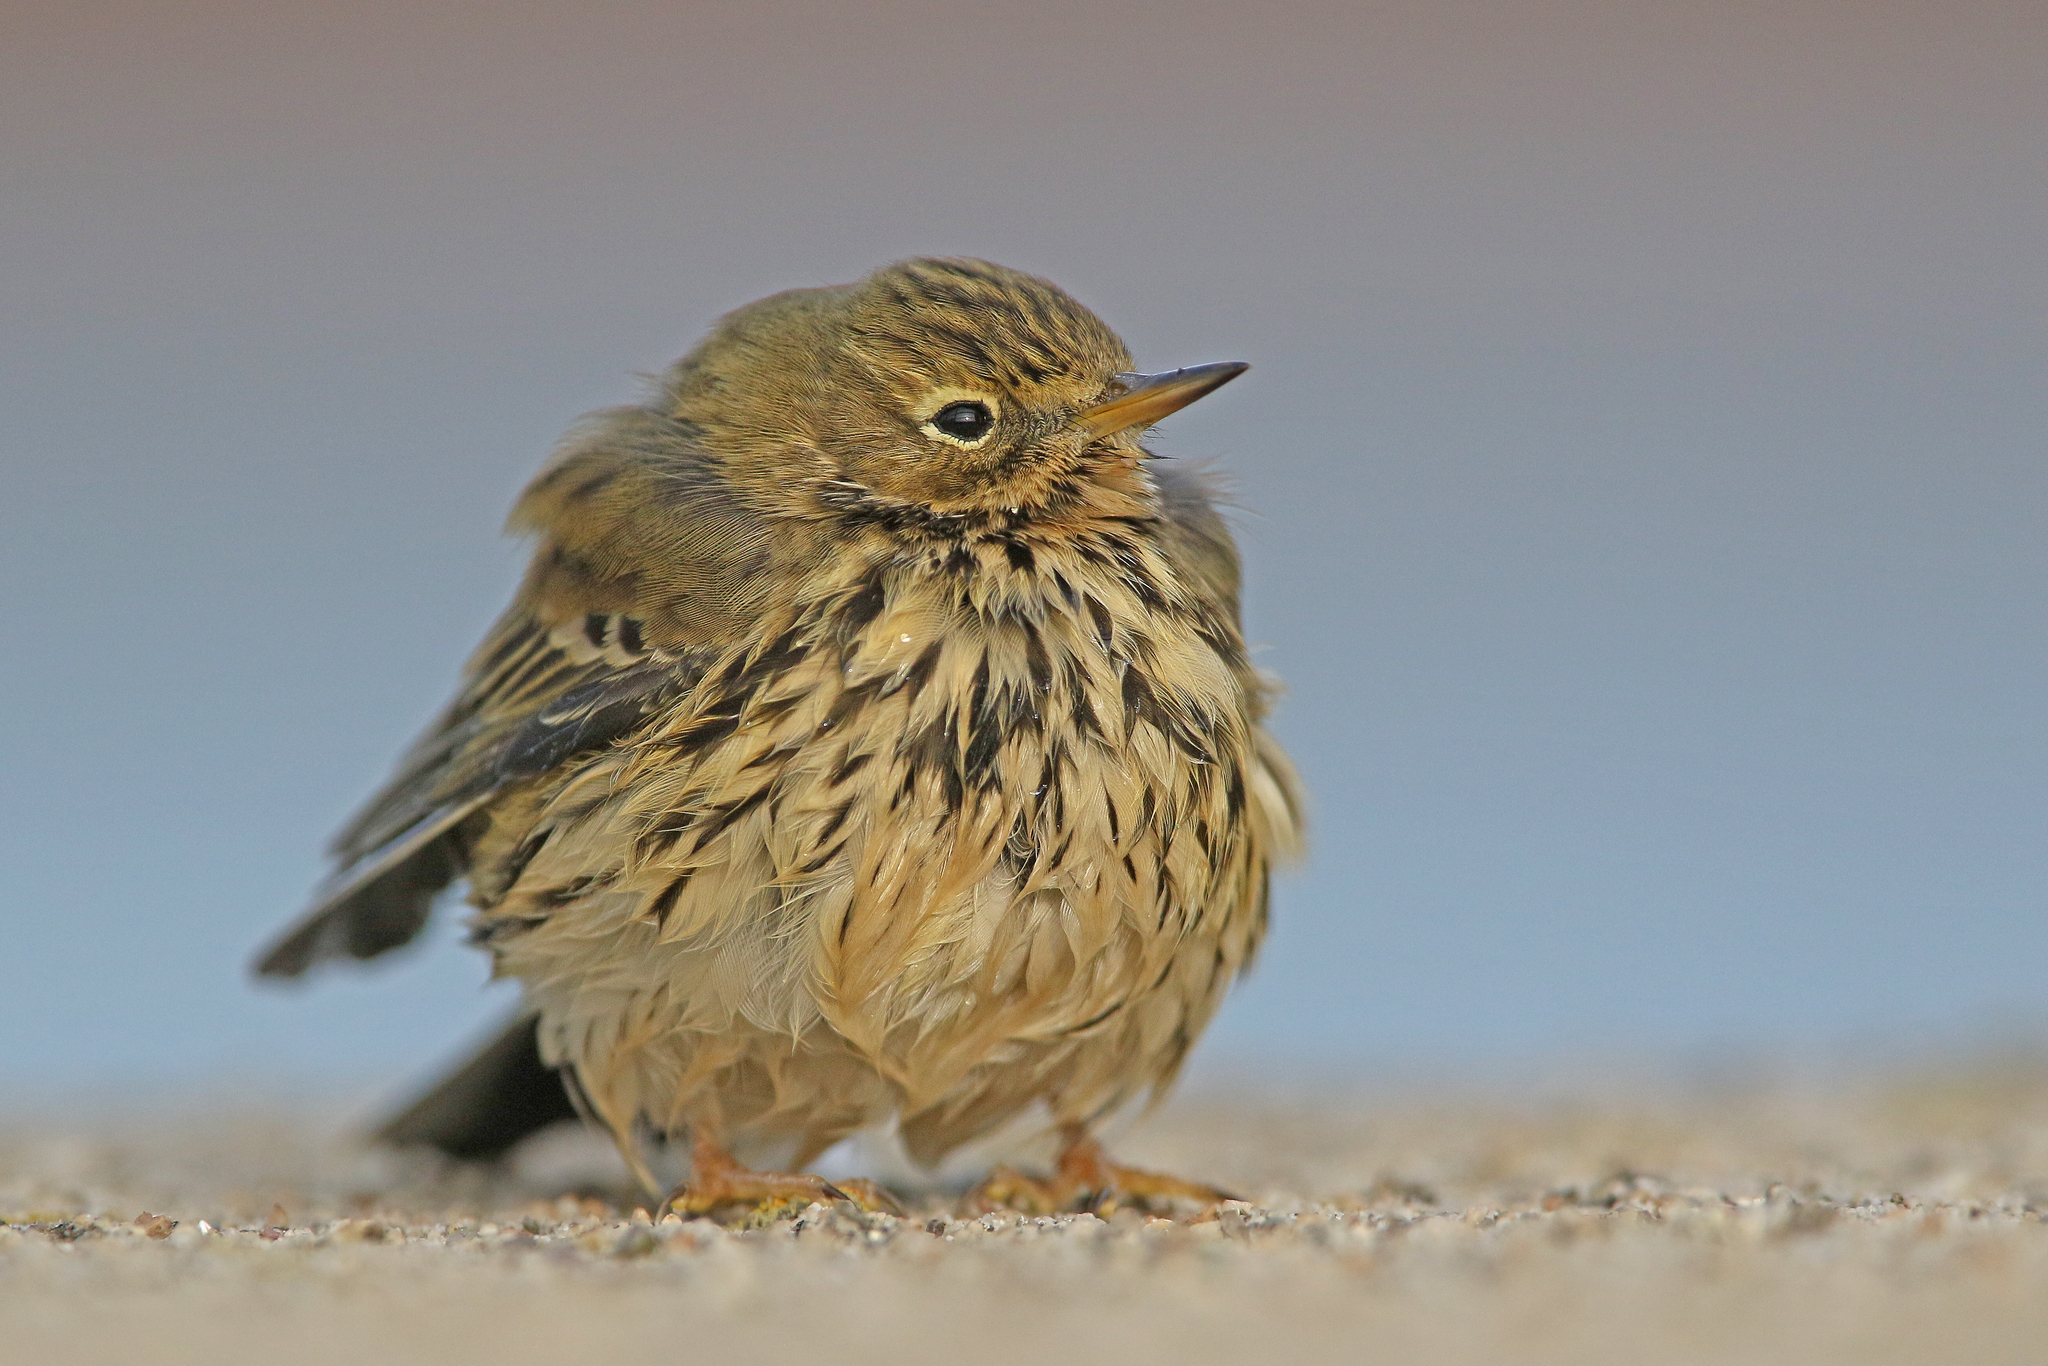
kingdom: Animalia
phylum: Chordata
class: Aves
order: Passeriformes
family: Motacillidae
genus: Anthus
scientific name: Anthus pratensis
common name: Meadow pipit
